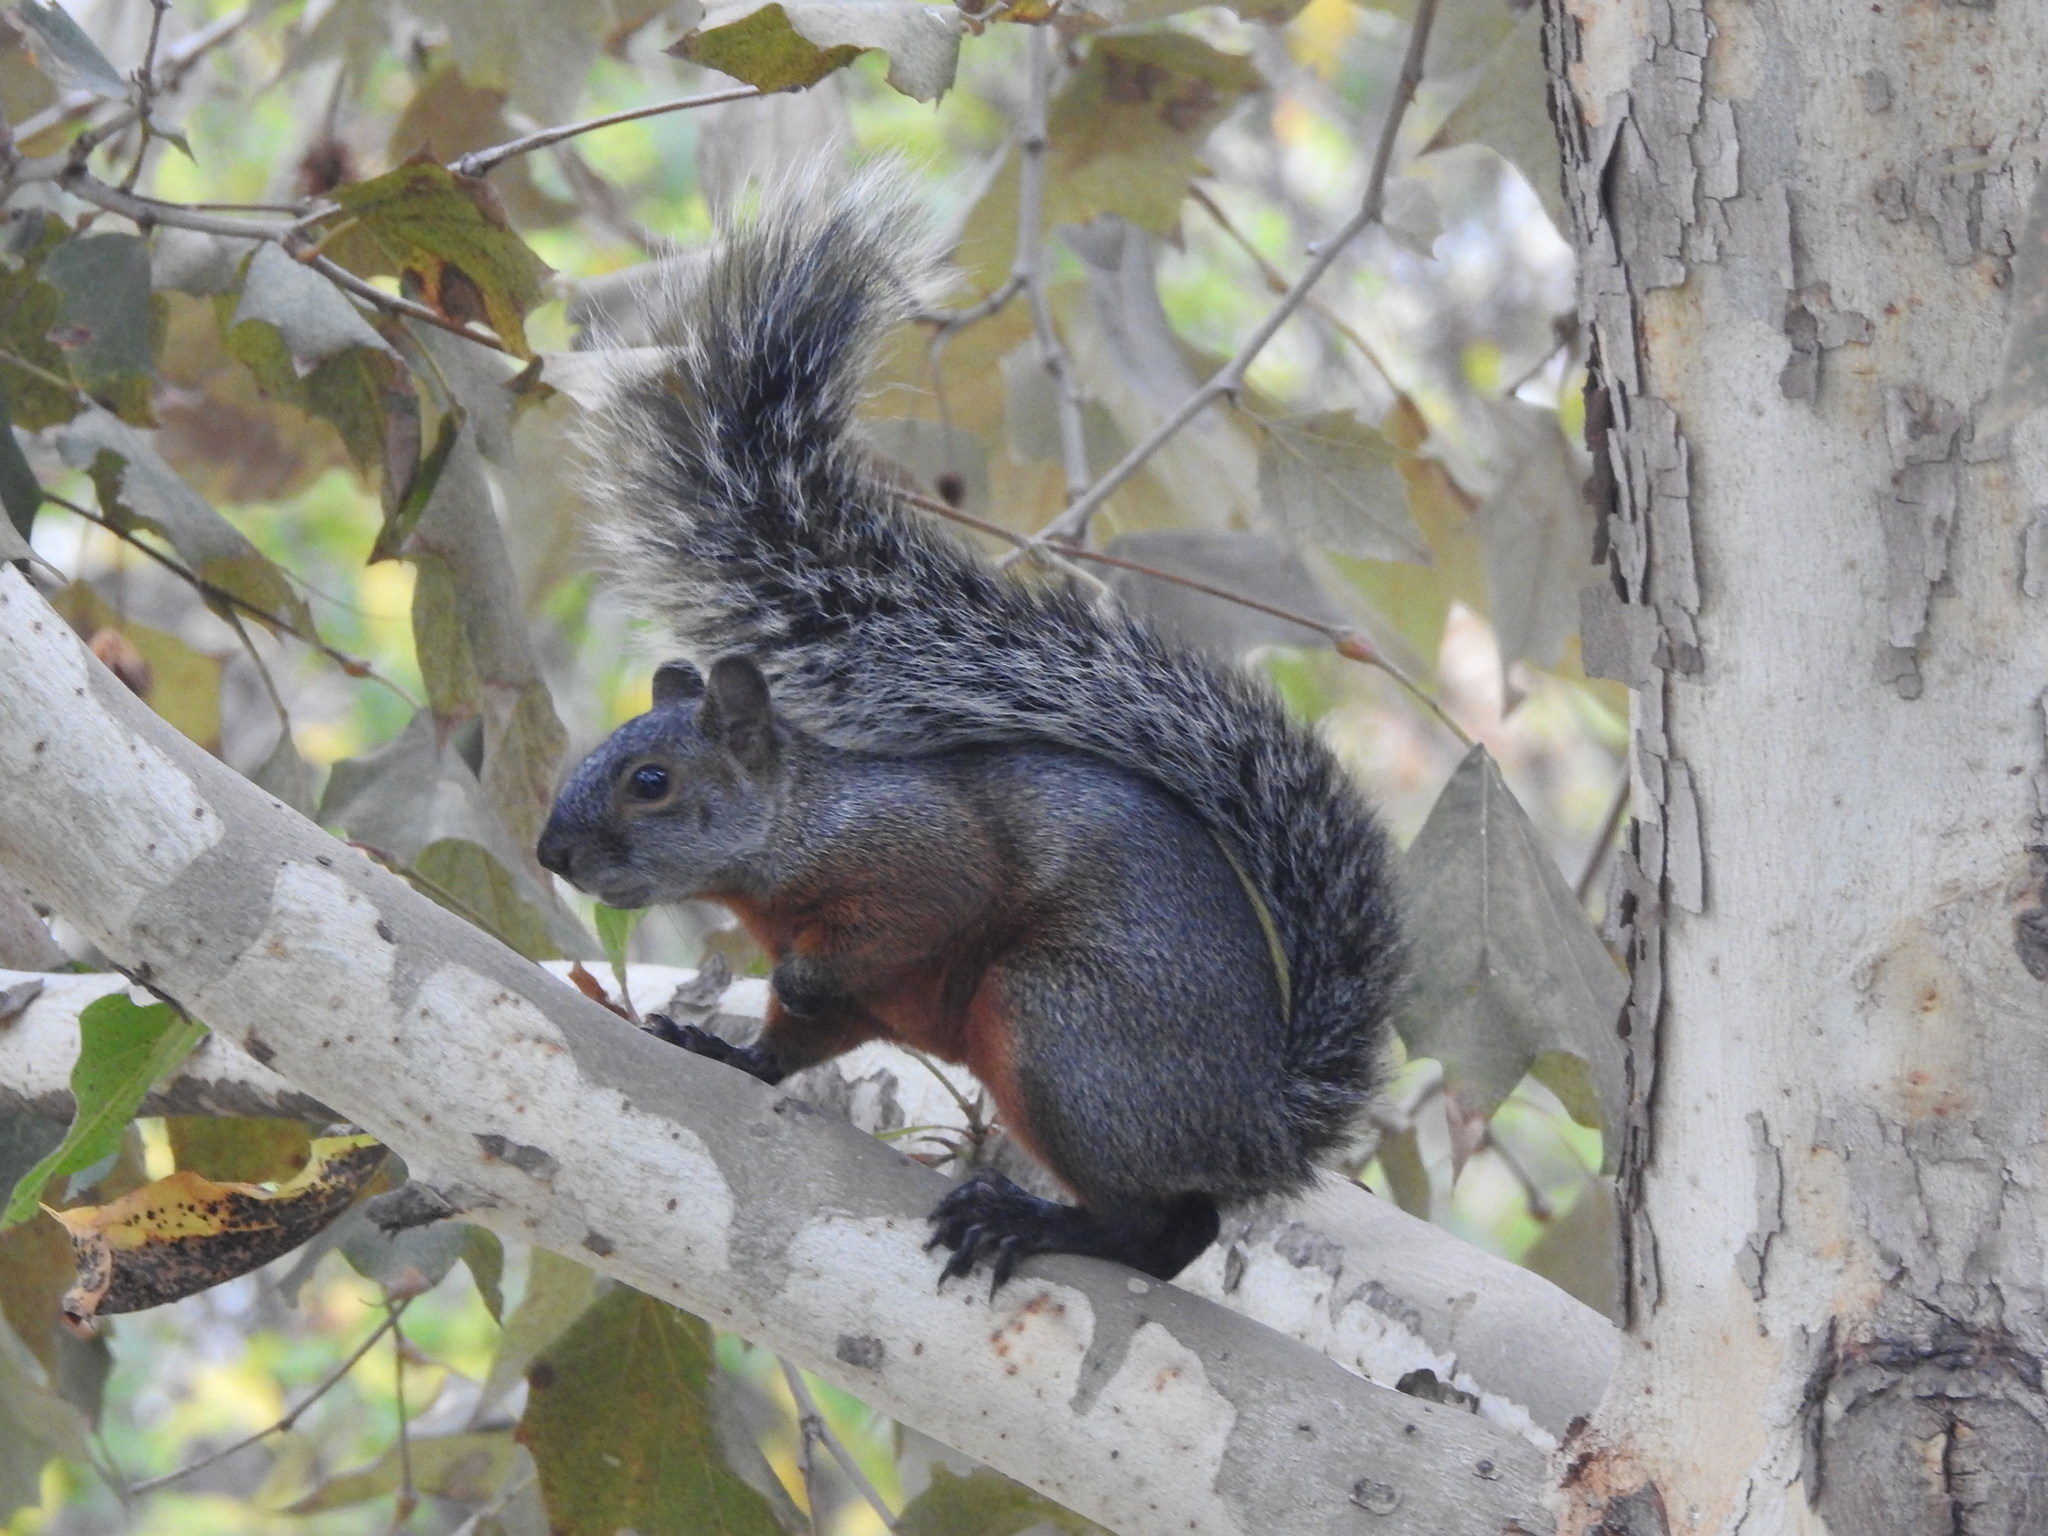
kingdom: Animalia
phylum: Chordata
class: Mammalia
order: Rodentia
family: Sciuridae
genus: Sciurus
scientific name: Sciurus aureogaster
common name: Red-bellied squirrel
